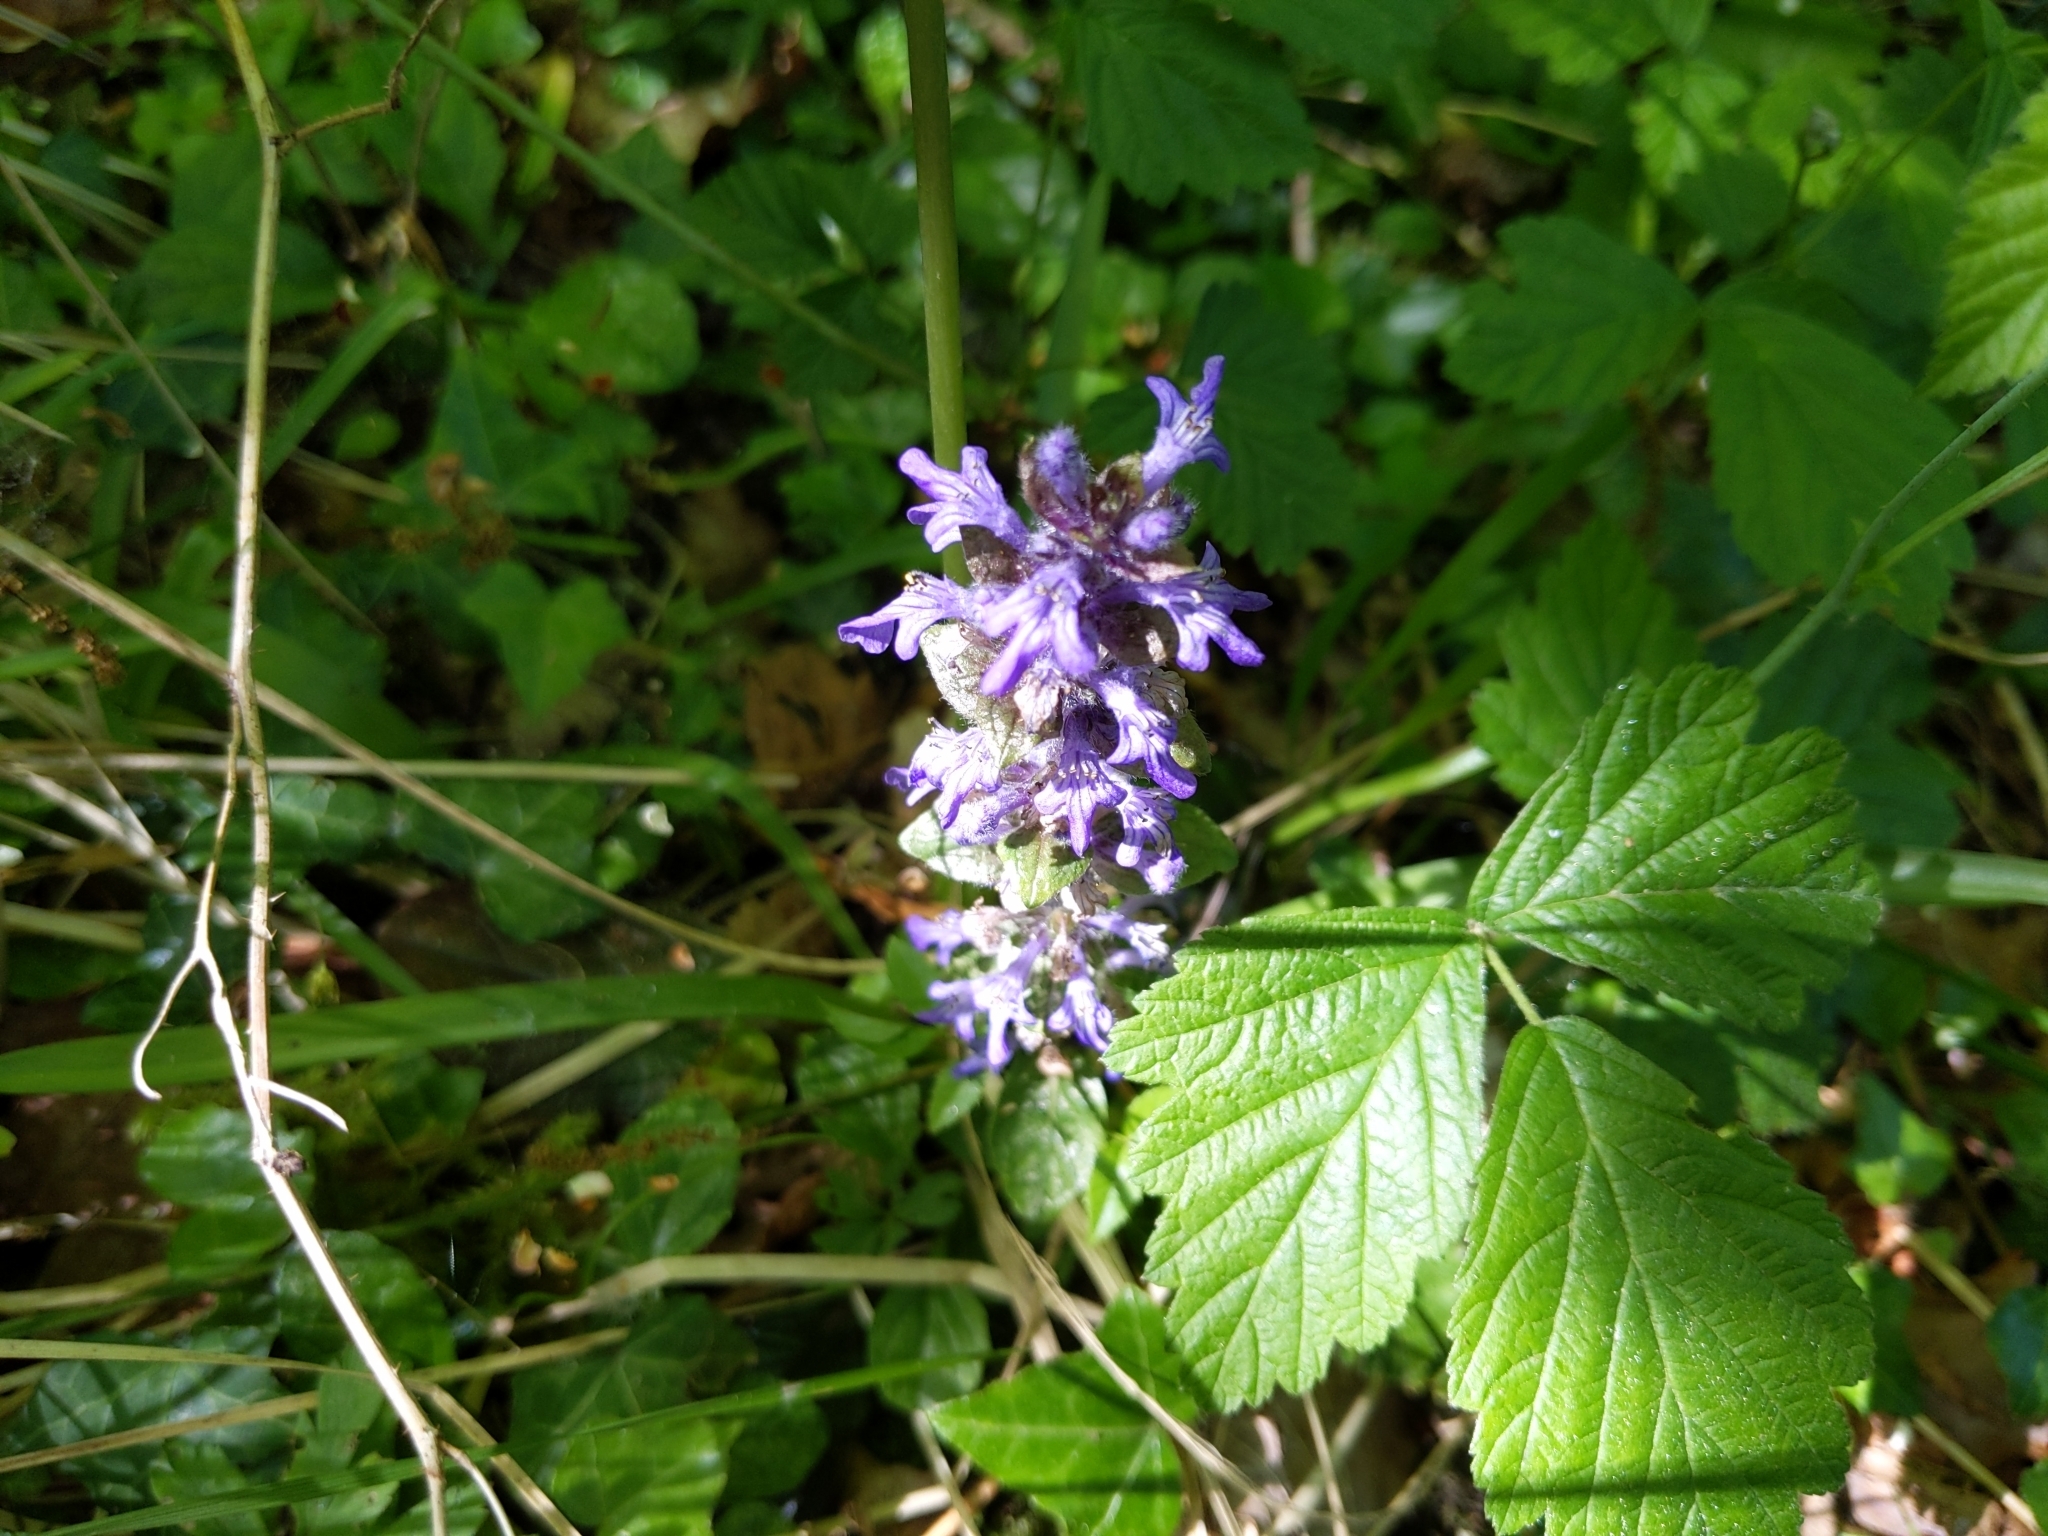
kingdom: Plantae
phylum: Tracheophyta
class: Magnoliopsida
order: Lamiales
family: Lamiaceae
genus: Ajuga
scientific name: Ajuga reptans
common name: Bugle
